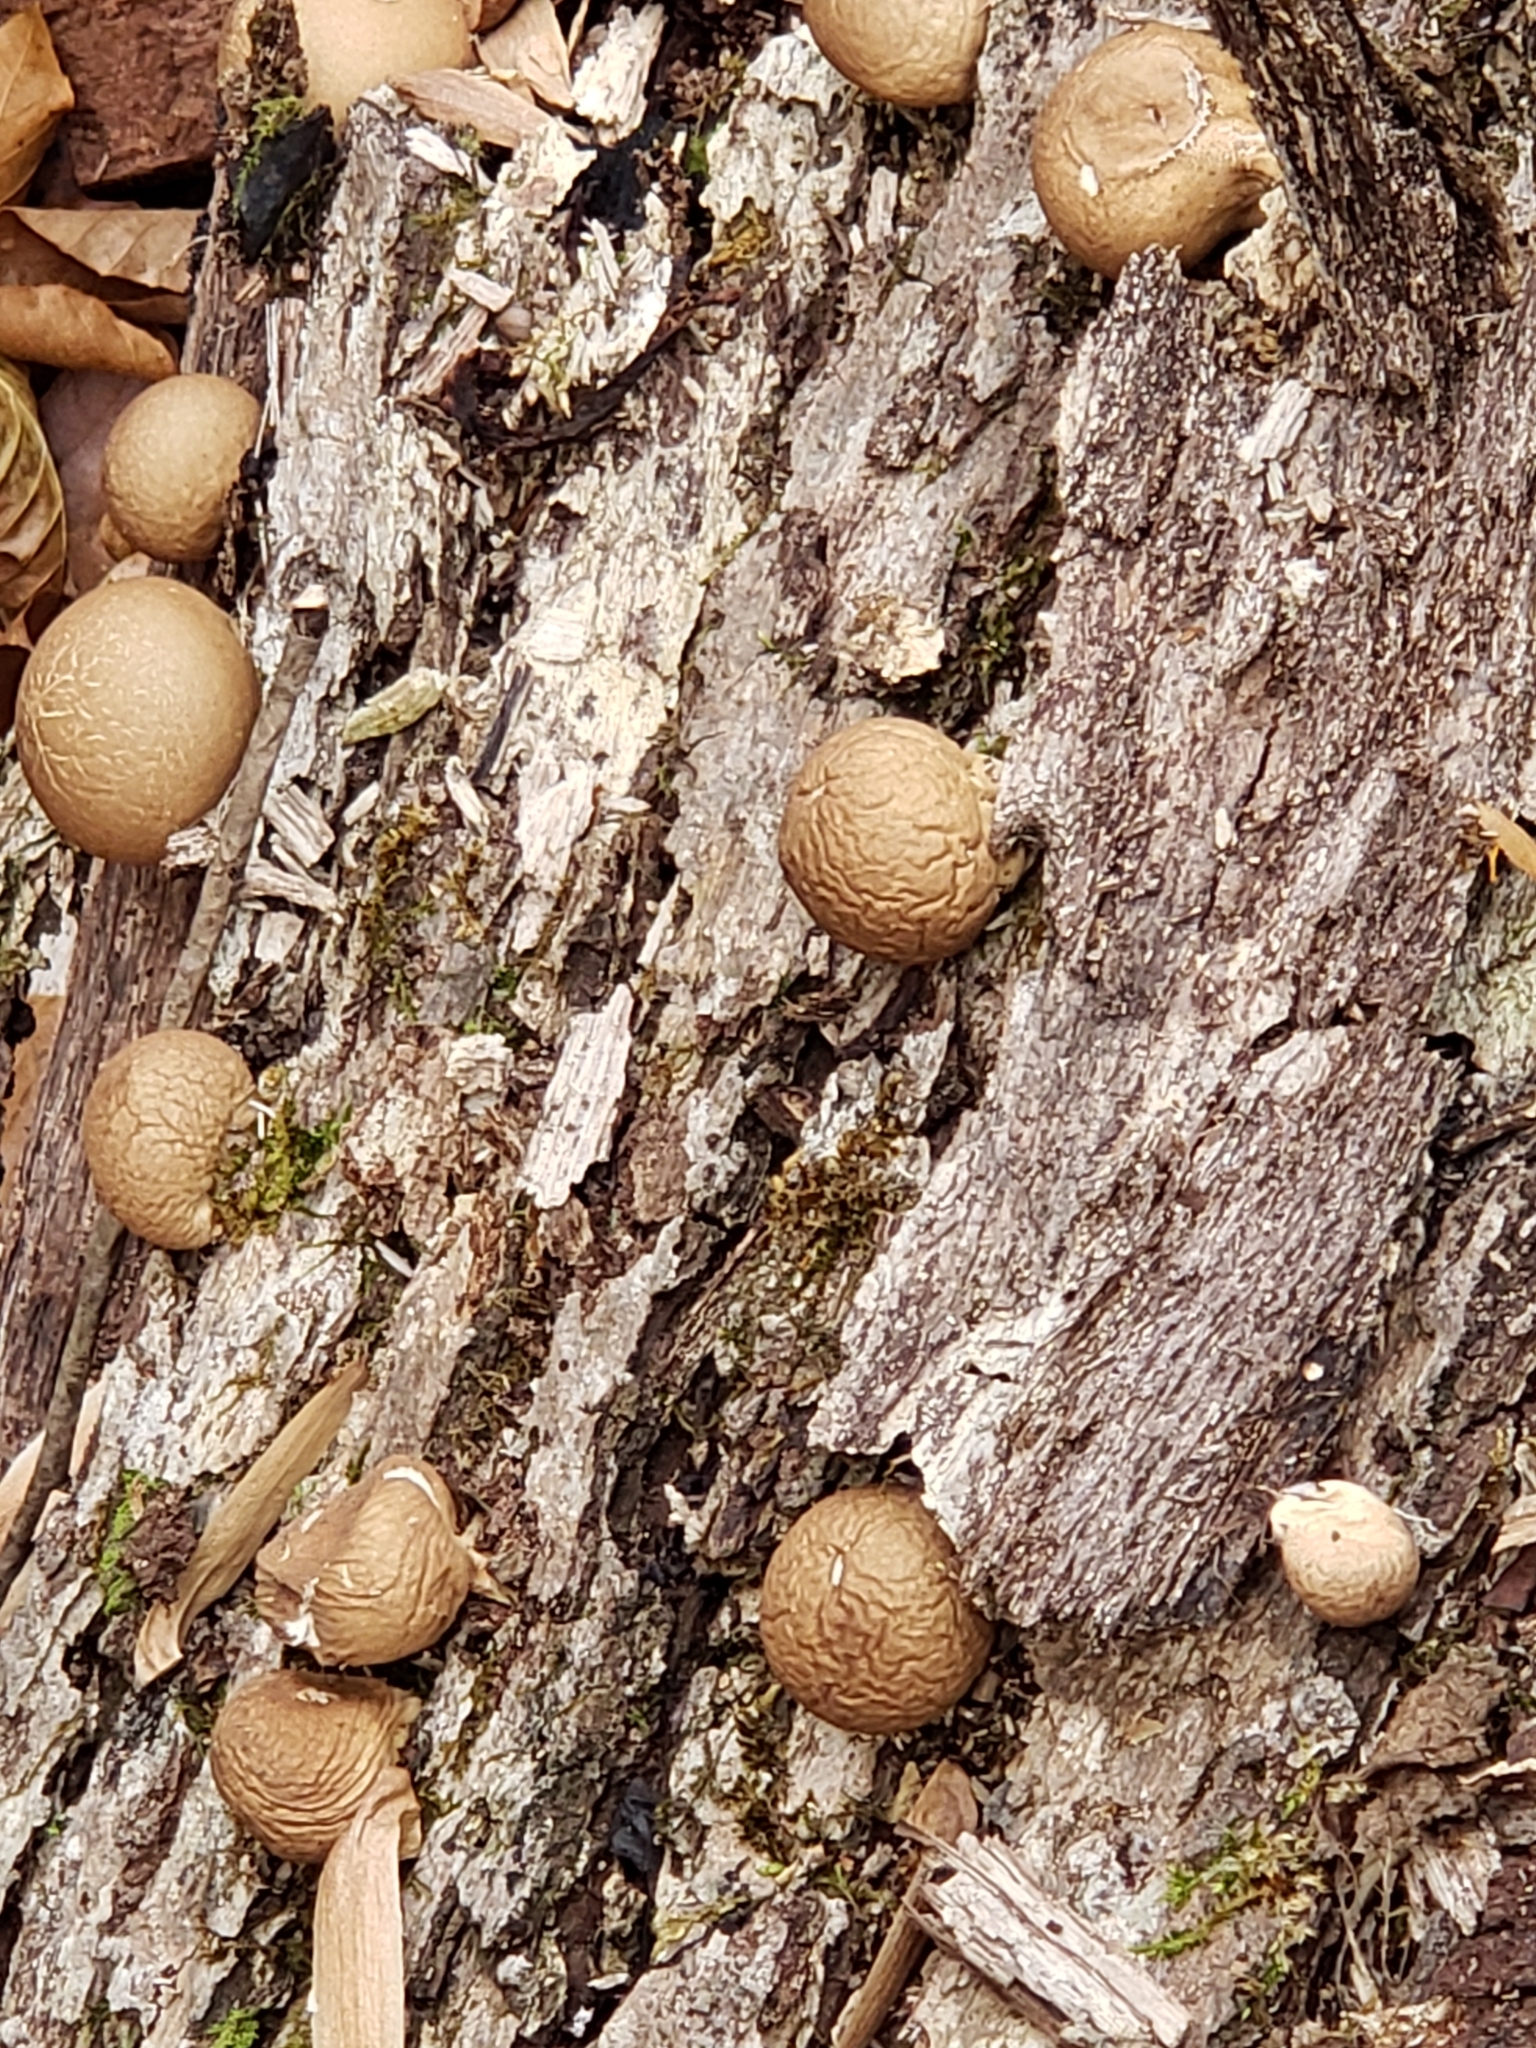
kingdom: Fungi
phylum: Basidiomycota
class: Agaricomycetes
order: Agaricales
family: Lycoperdaceae
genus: Apioperdon
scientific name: Apioperdon pyriforme
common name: Pear-shaped puffball
